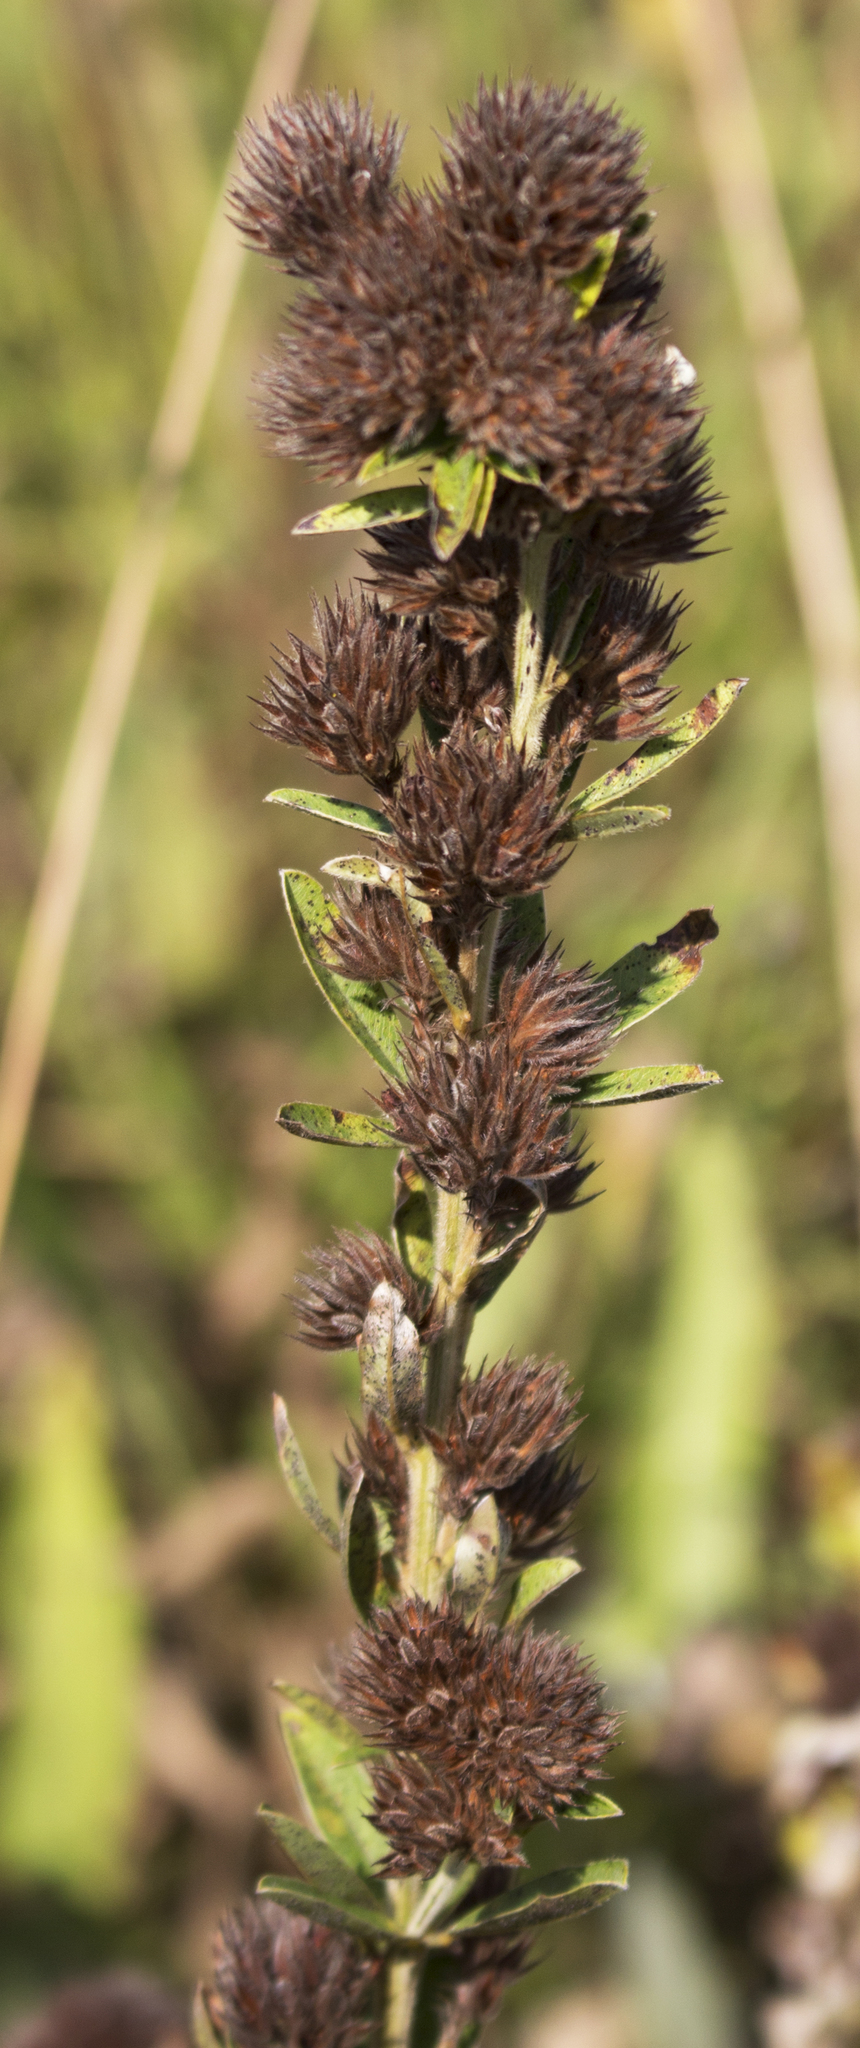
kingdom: Plantae
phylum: Tracheophyta
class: Magnoliopsida
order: Fabales
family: Fabaceae
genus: Lespedeza
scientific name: Lespedeza capitata
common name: Dusty clover
